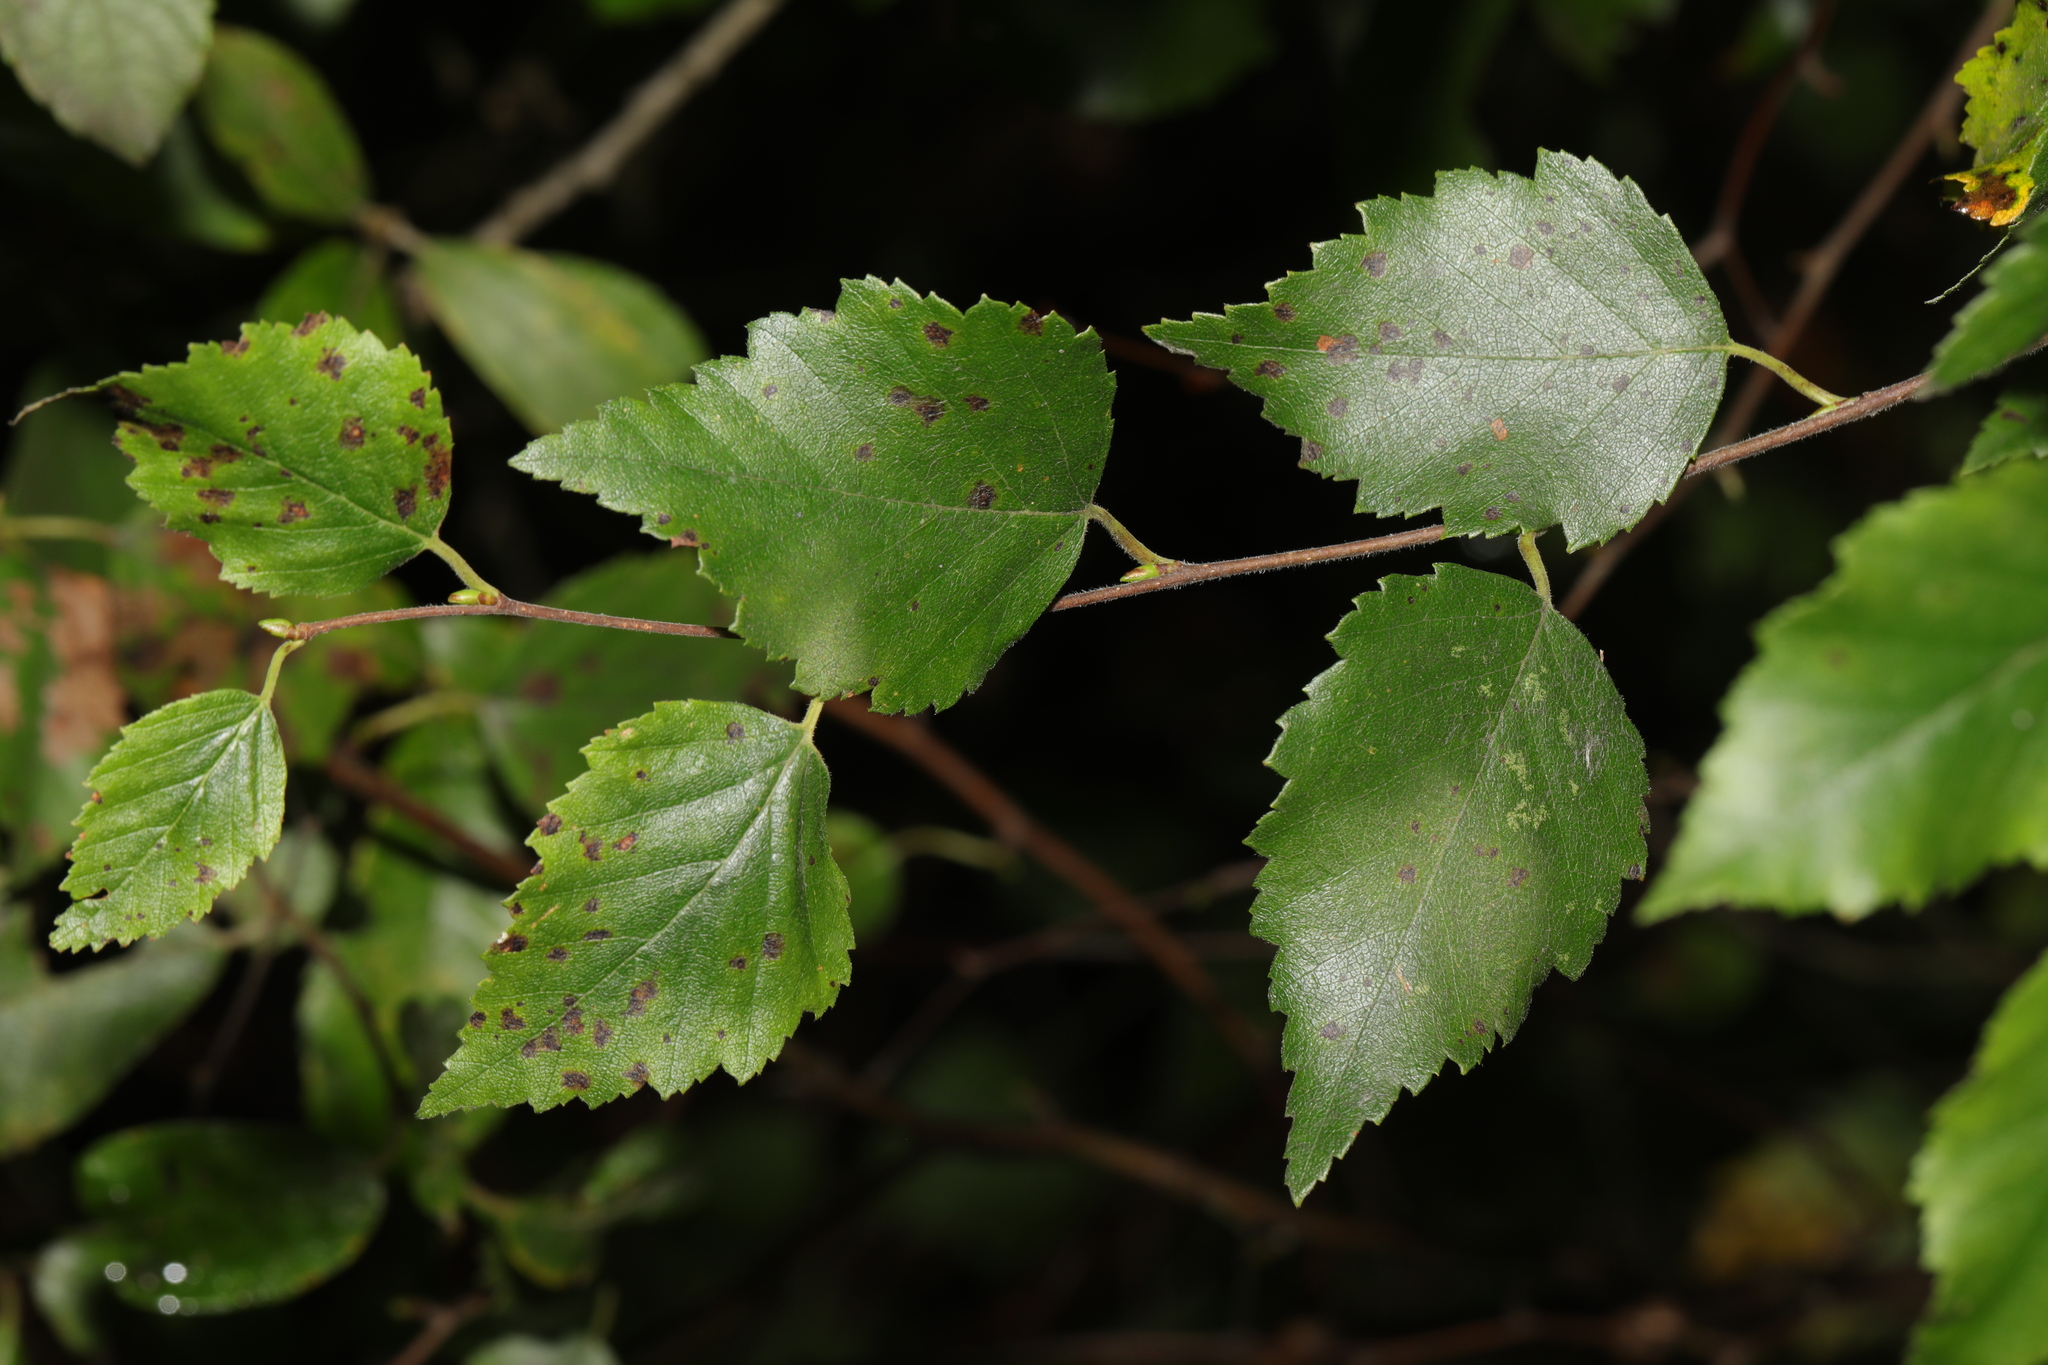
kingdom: Plantae
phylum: Tracheophyta
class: Magnoliopsida
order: Fagales
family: Betulaceae
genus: Betula
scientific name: Betula aurata
